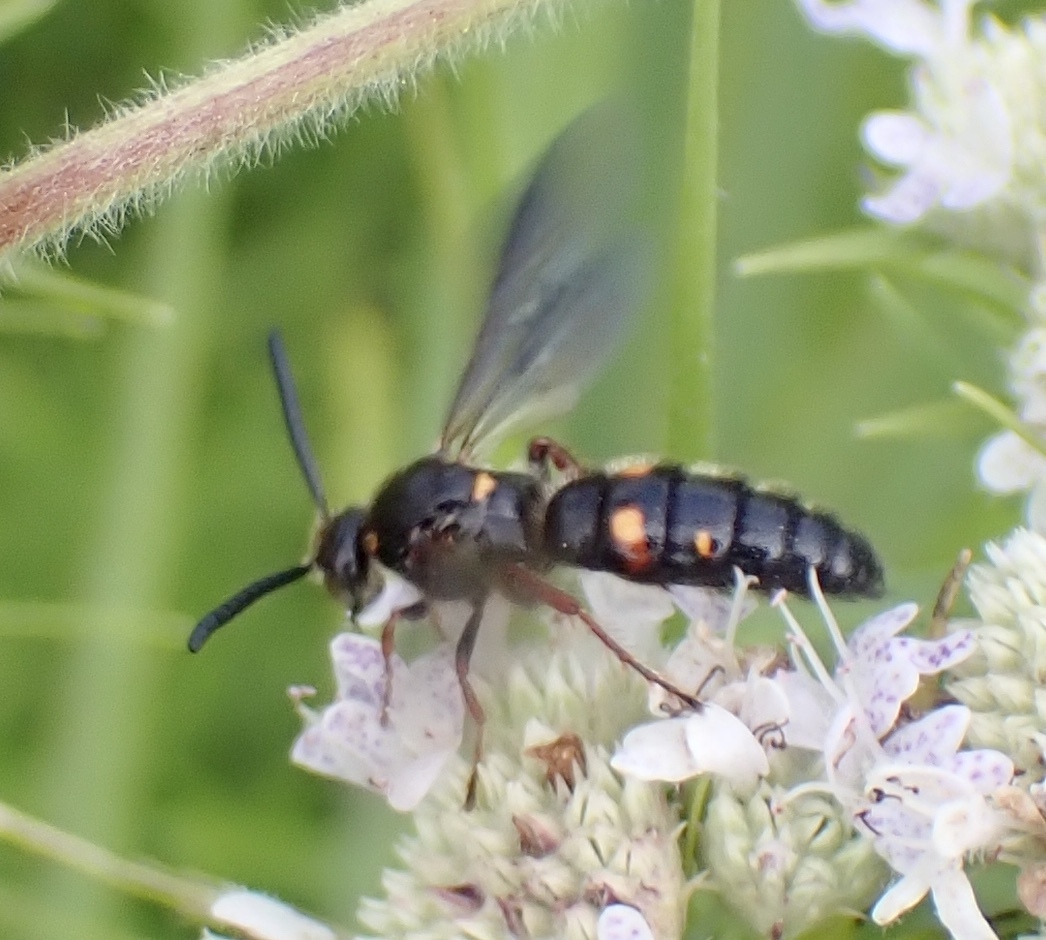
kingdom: Animalia
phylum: Arthropoda
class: Insecta
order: Hymenoptera
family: Scoliidae
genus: Scolia
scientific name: Scolia nobilitata
